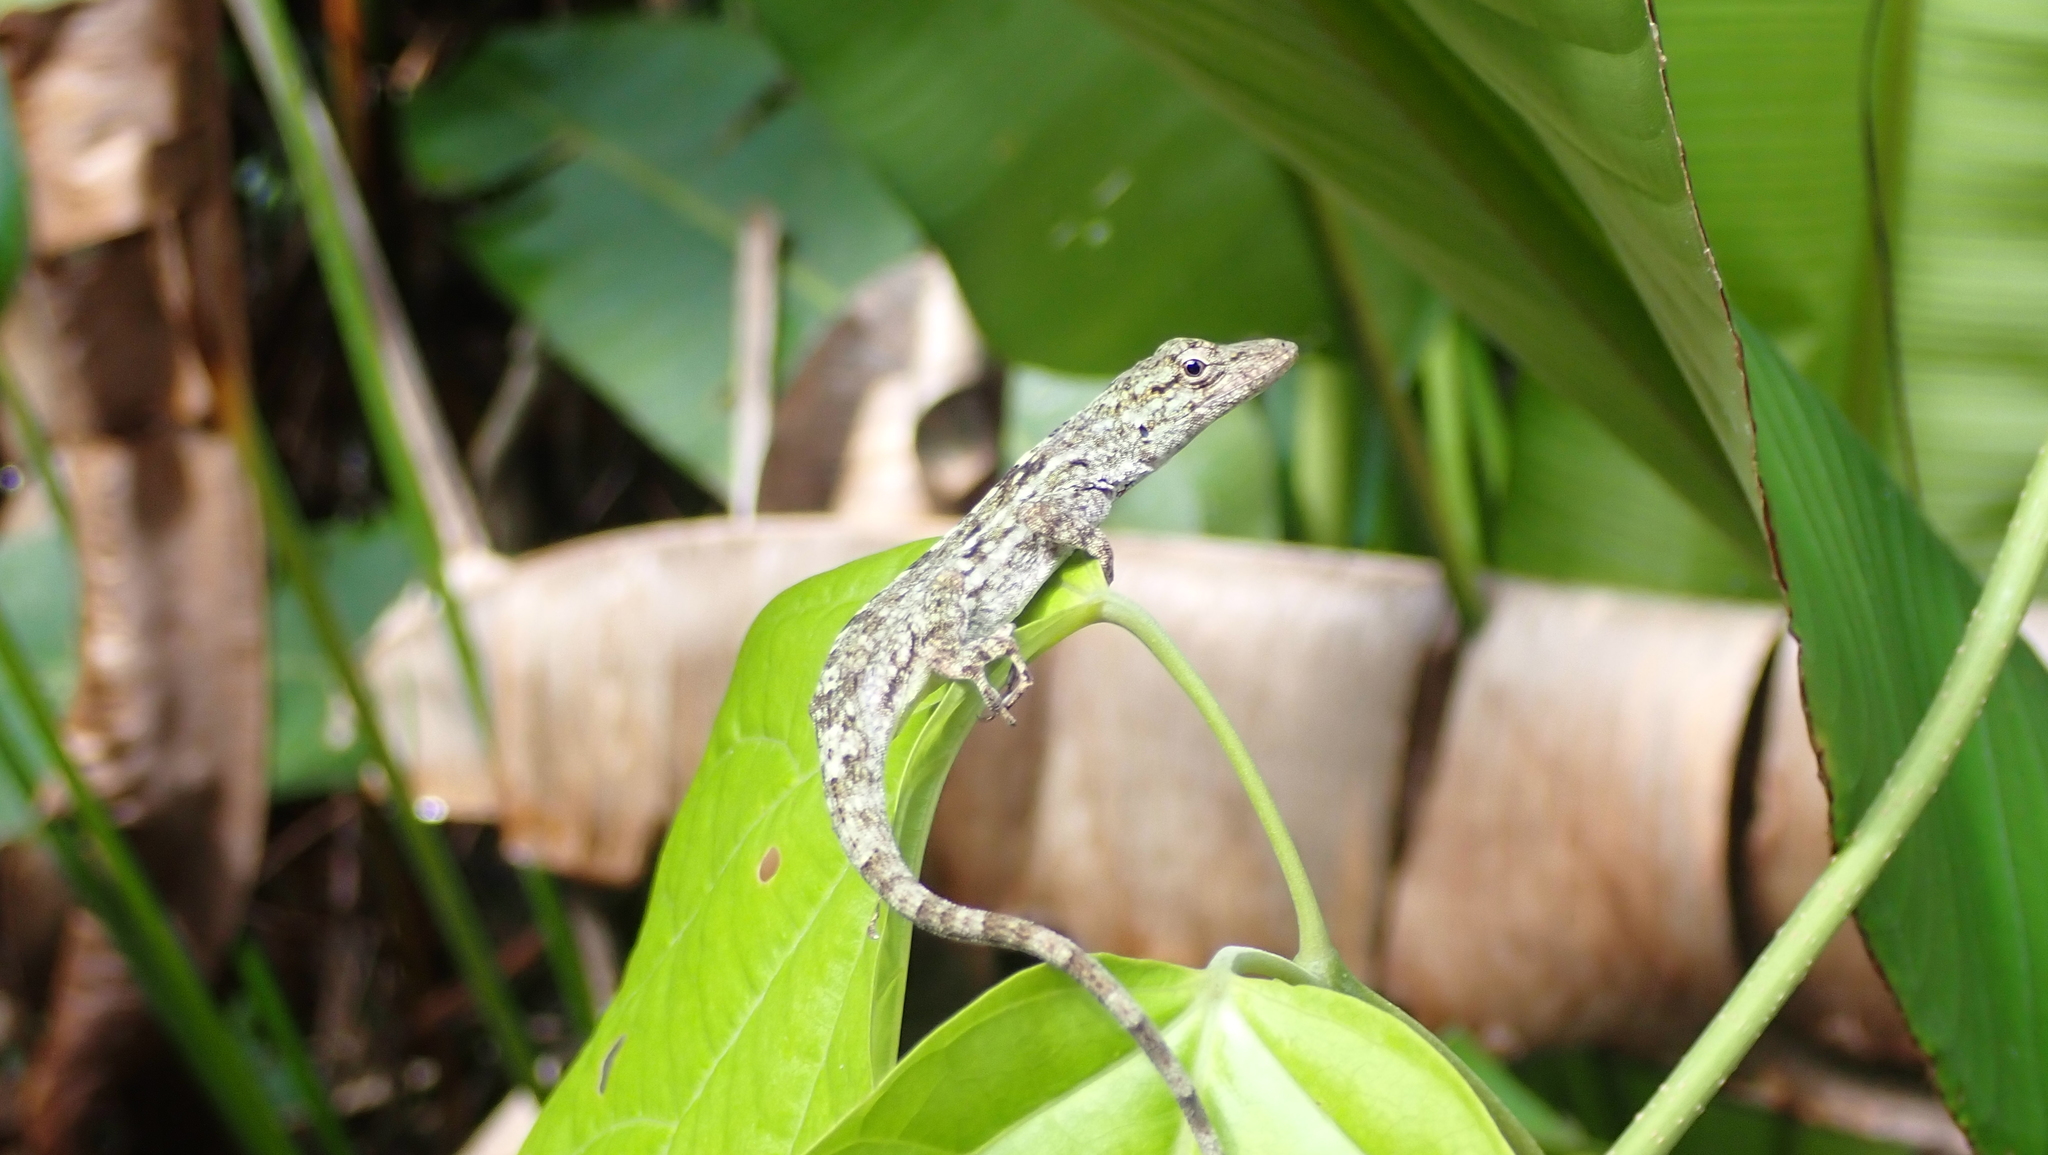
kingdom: Animalia
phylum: Chordata
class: Squamata
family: Dactyloidae
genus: Anolis
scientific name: Anolis charlesmyersi
